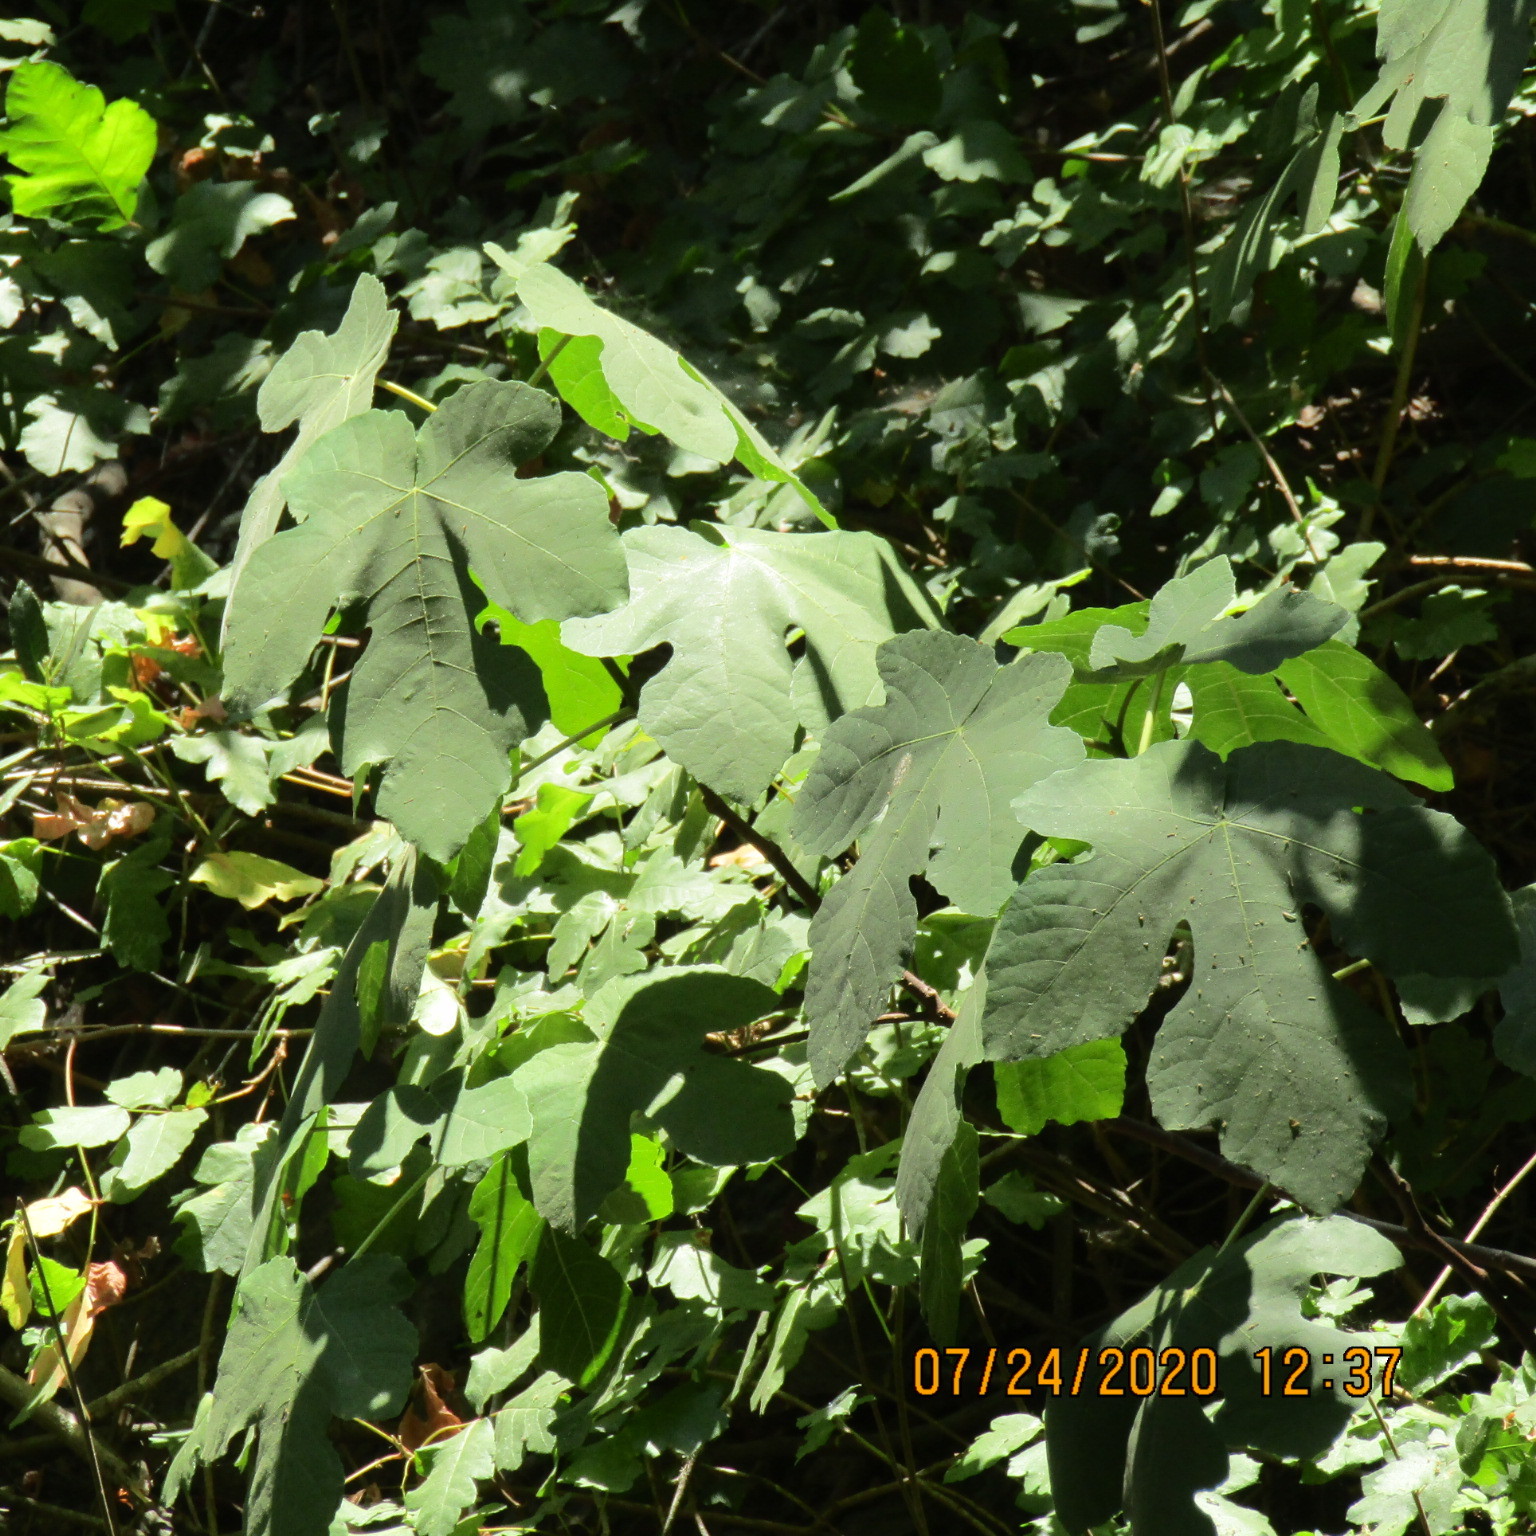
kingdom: Plantae
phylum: Tracheophyta
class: Magnoliopsida
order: Rosales
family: Moraceae
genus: Ficus
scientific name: Ficus carica
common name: Fig
